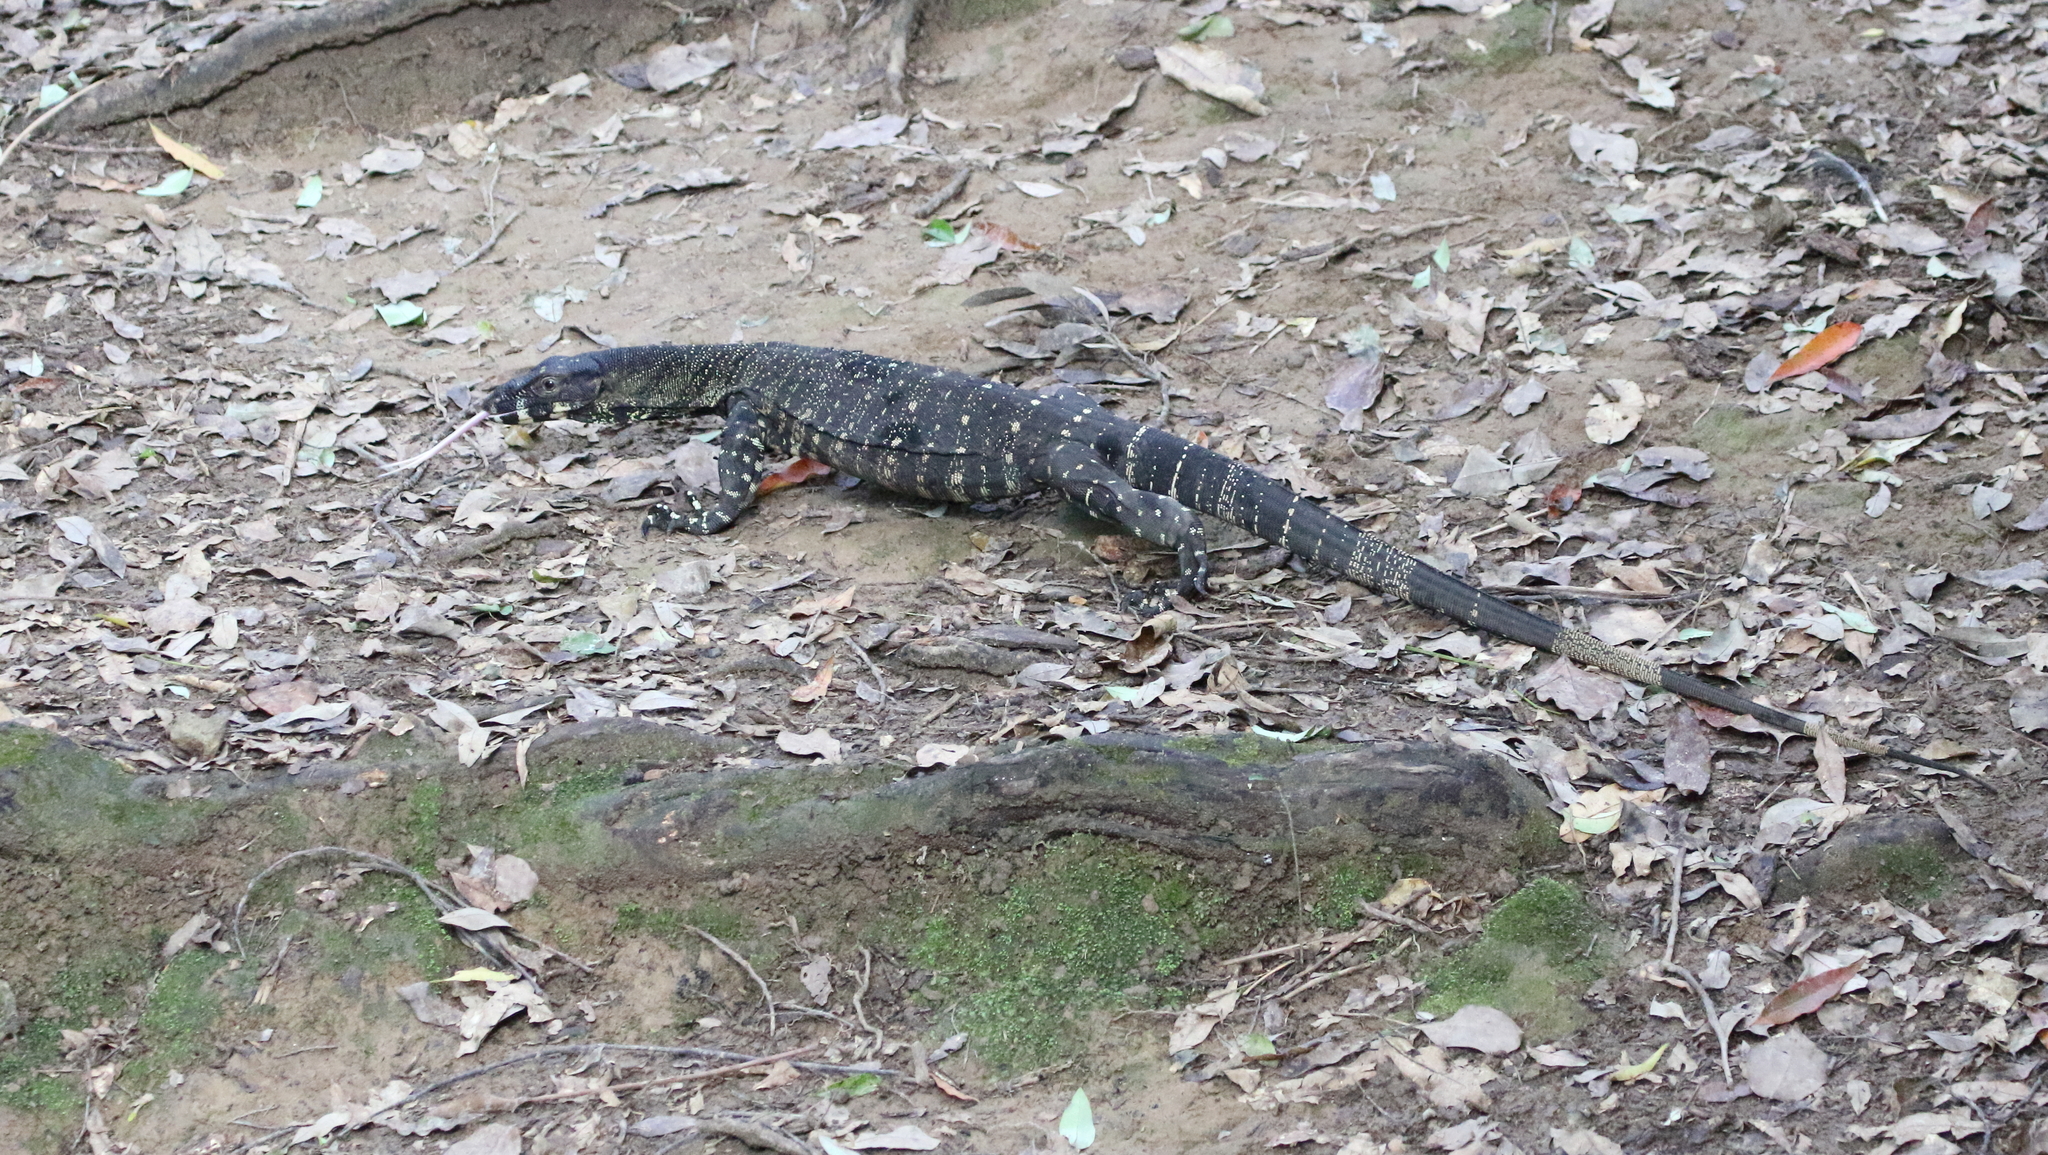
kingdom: Animalia
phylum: Chordata
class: Squamata
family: Varanidae
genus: Varanus
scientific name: Varanus varius
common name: Lace monitor
